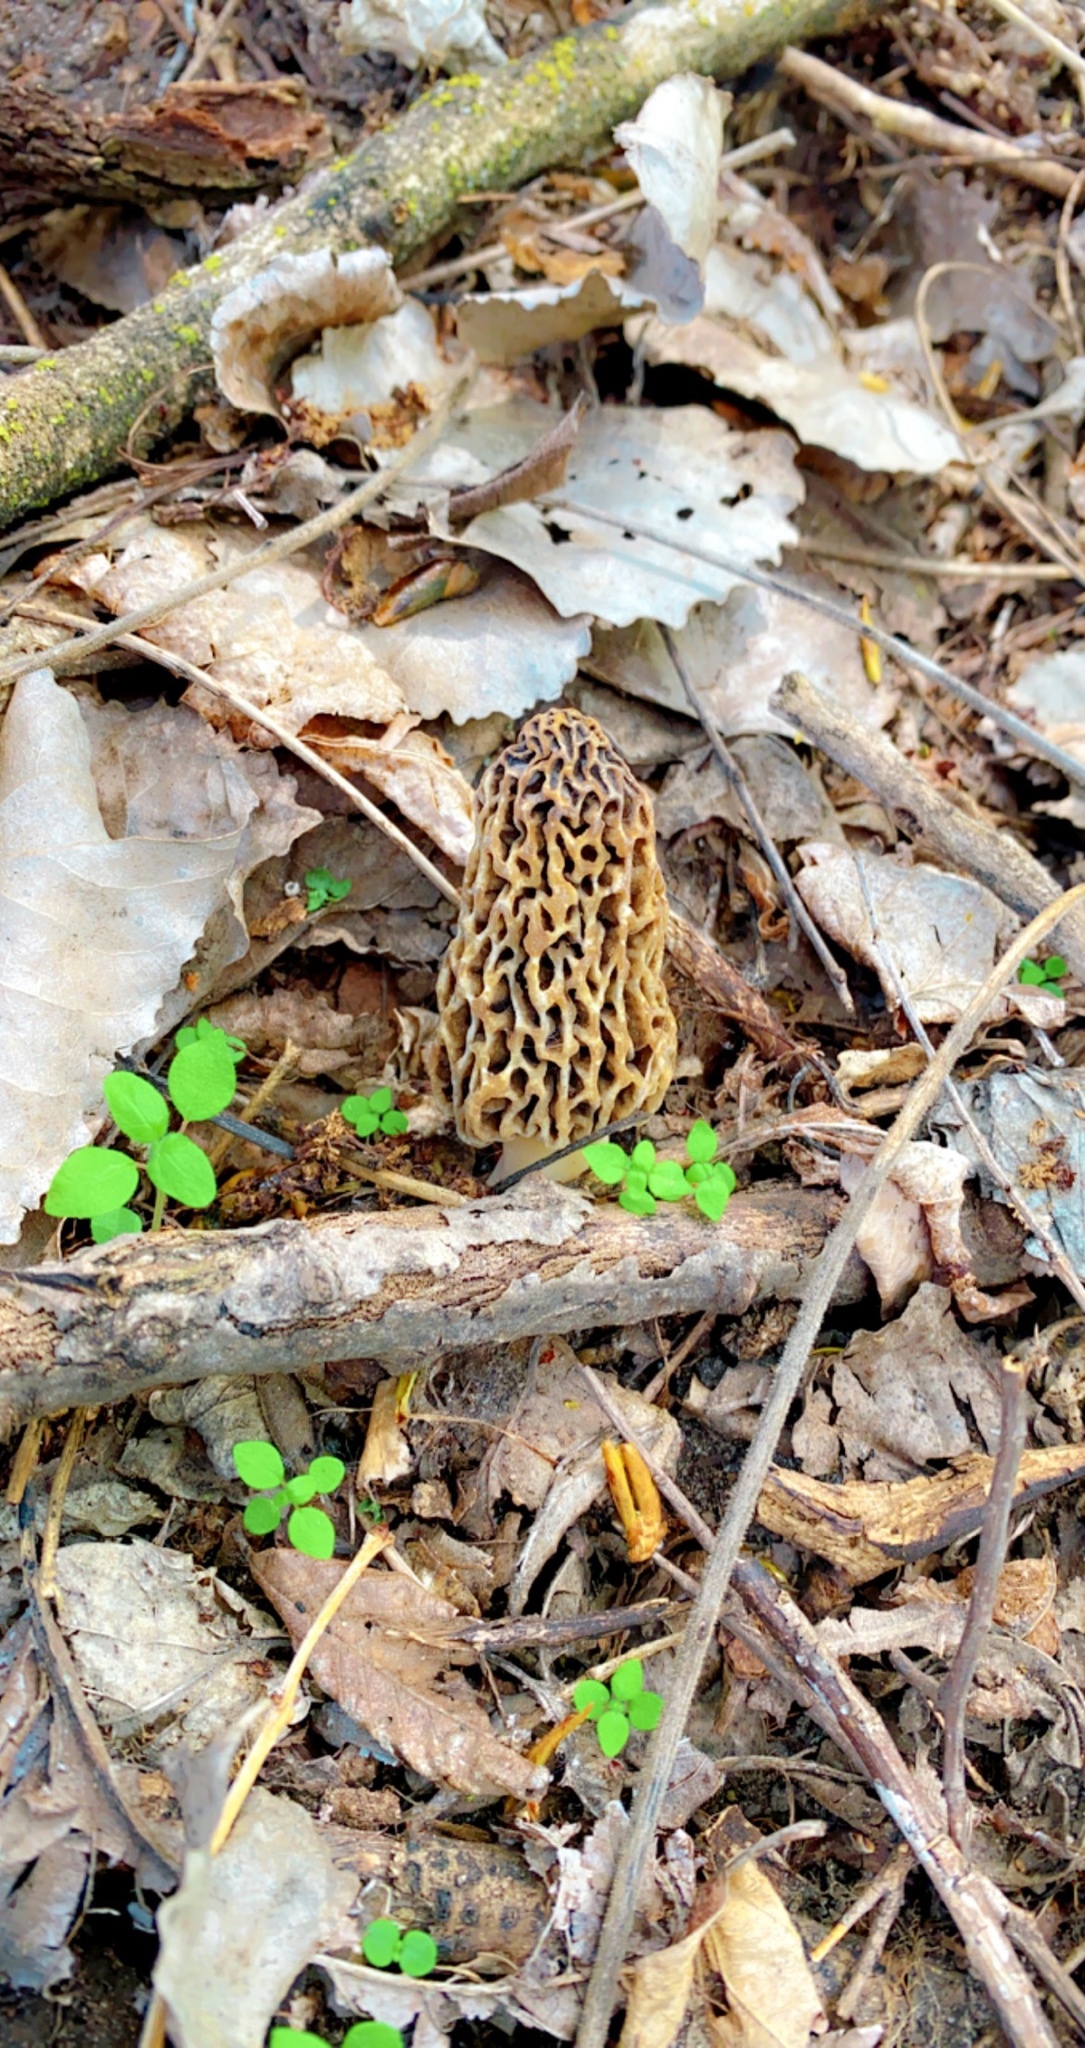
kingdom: Fungi
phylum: Ascomycota
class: Pezizomycetes
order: Pezizales
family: Morchellaceae
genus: Morchella
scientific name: Morchella americana
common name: White morel
